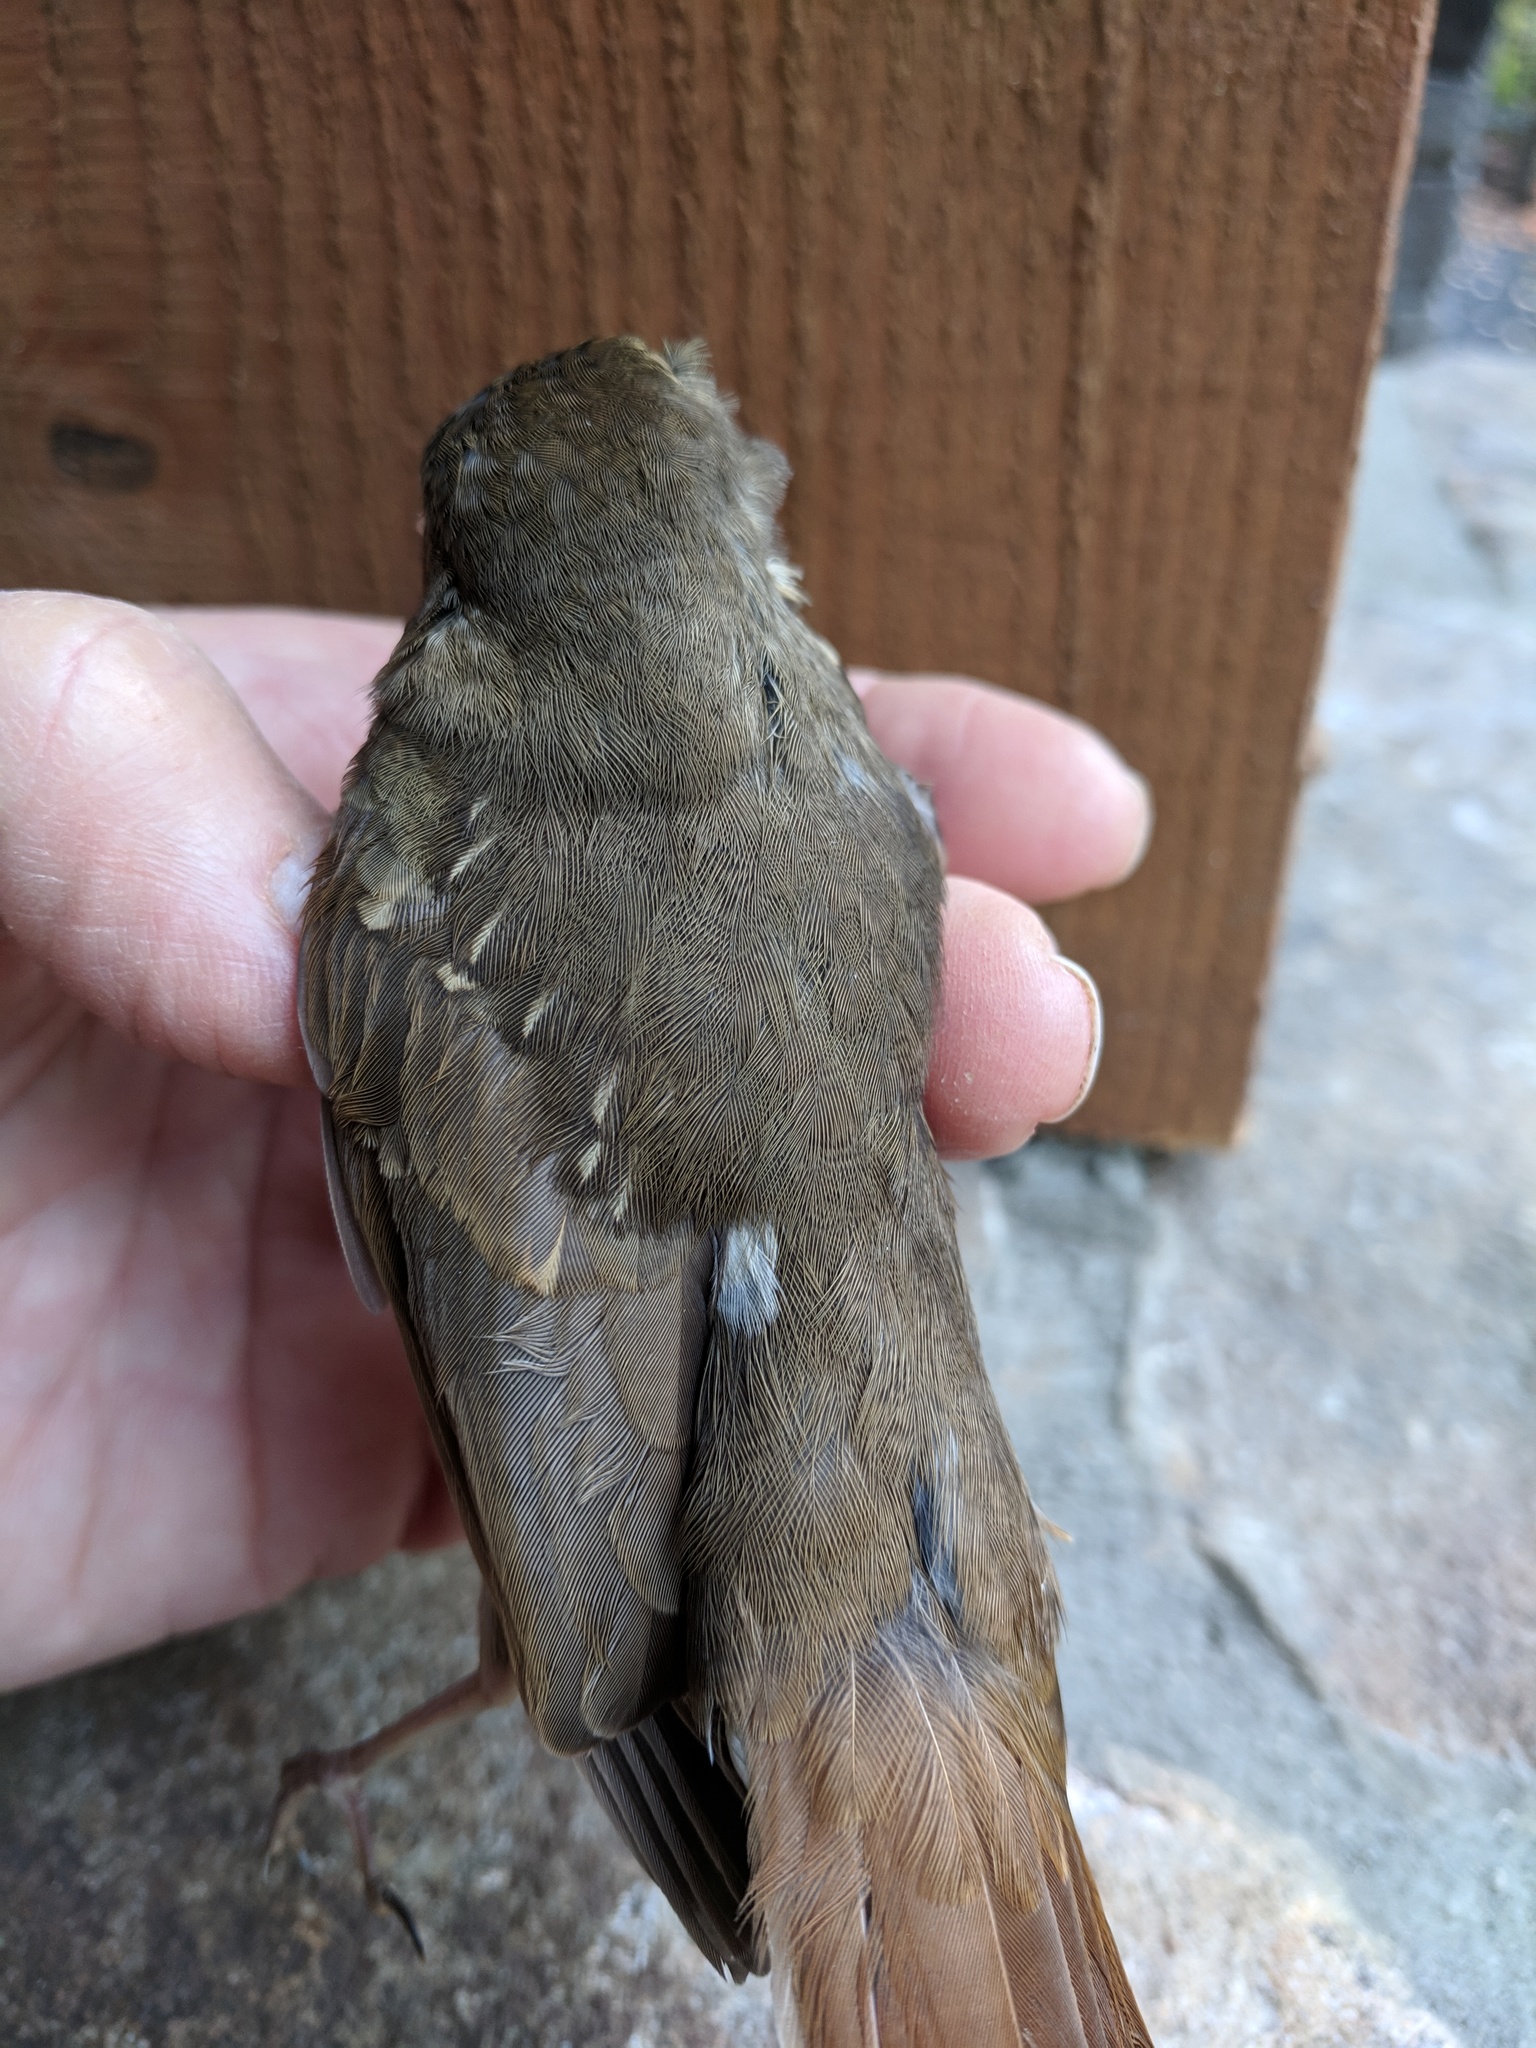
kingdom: Animalia
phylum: Chordata
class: Aves
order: Passeriformes
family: Turdidae
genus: Catharus
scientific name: Catharus guttatus
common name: Hermit thrush
